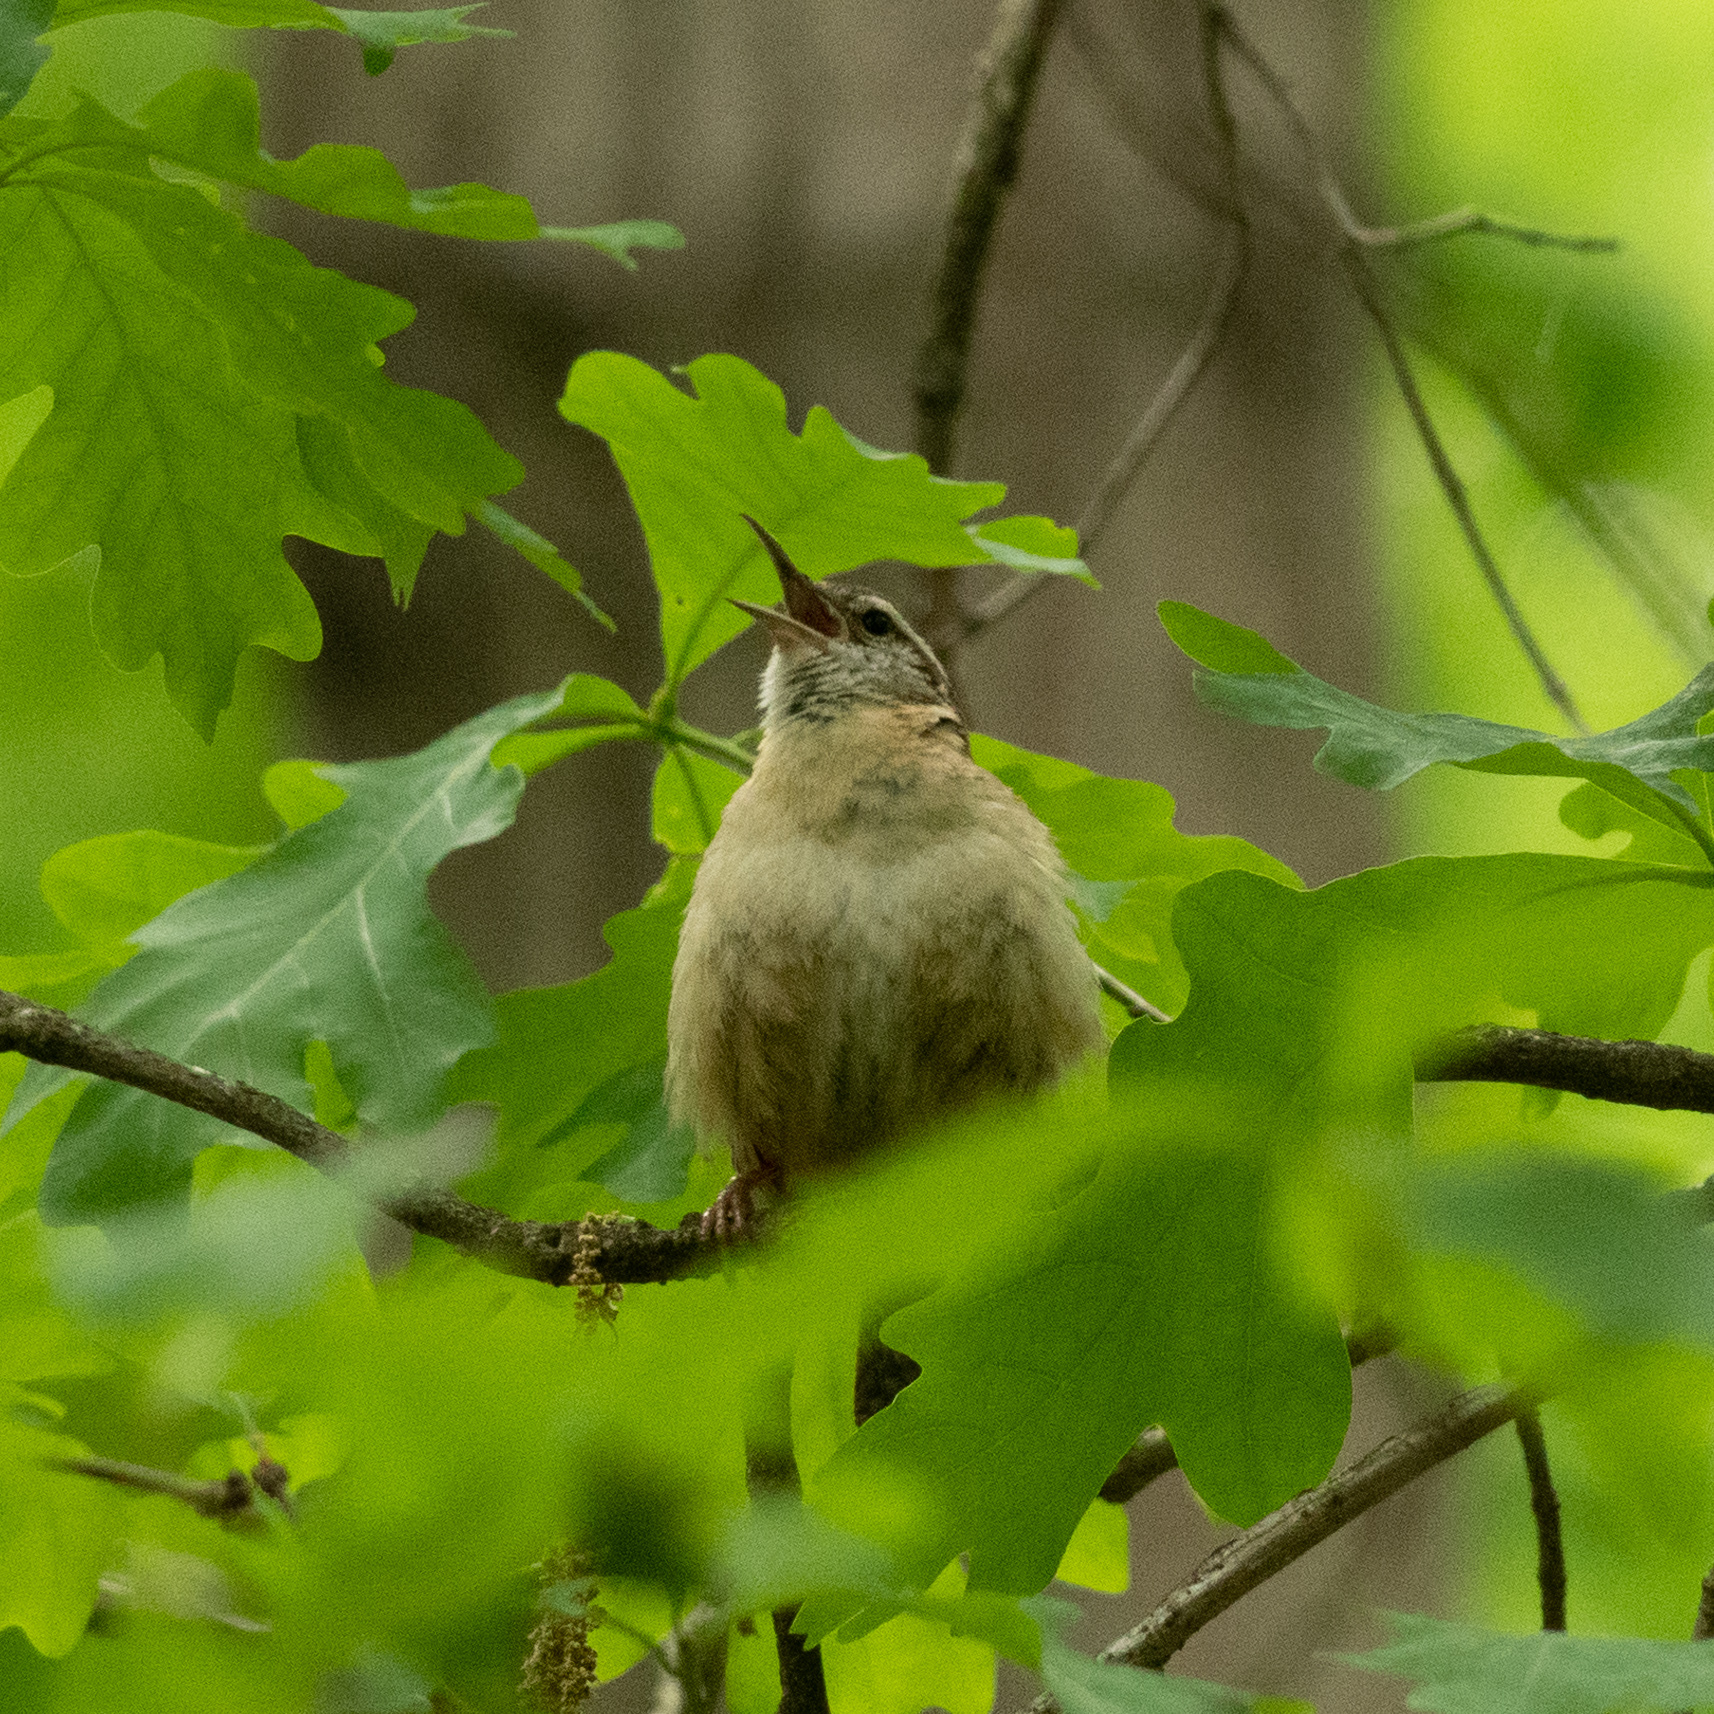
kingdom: Animalia
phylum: Chordata
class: Aves
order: Passeriformes
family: Troglodytidae
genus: Thryothorus
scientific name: Thryothorus ludovicianus
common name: Carolina wren
